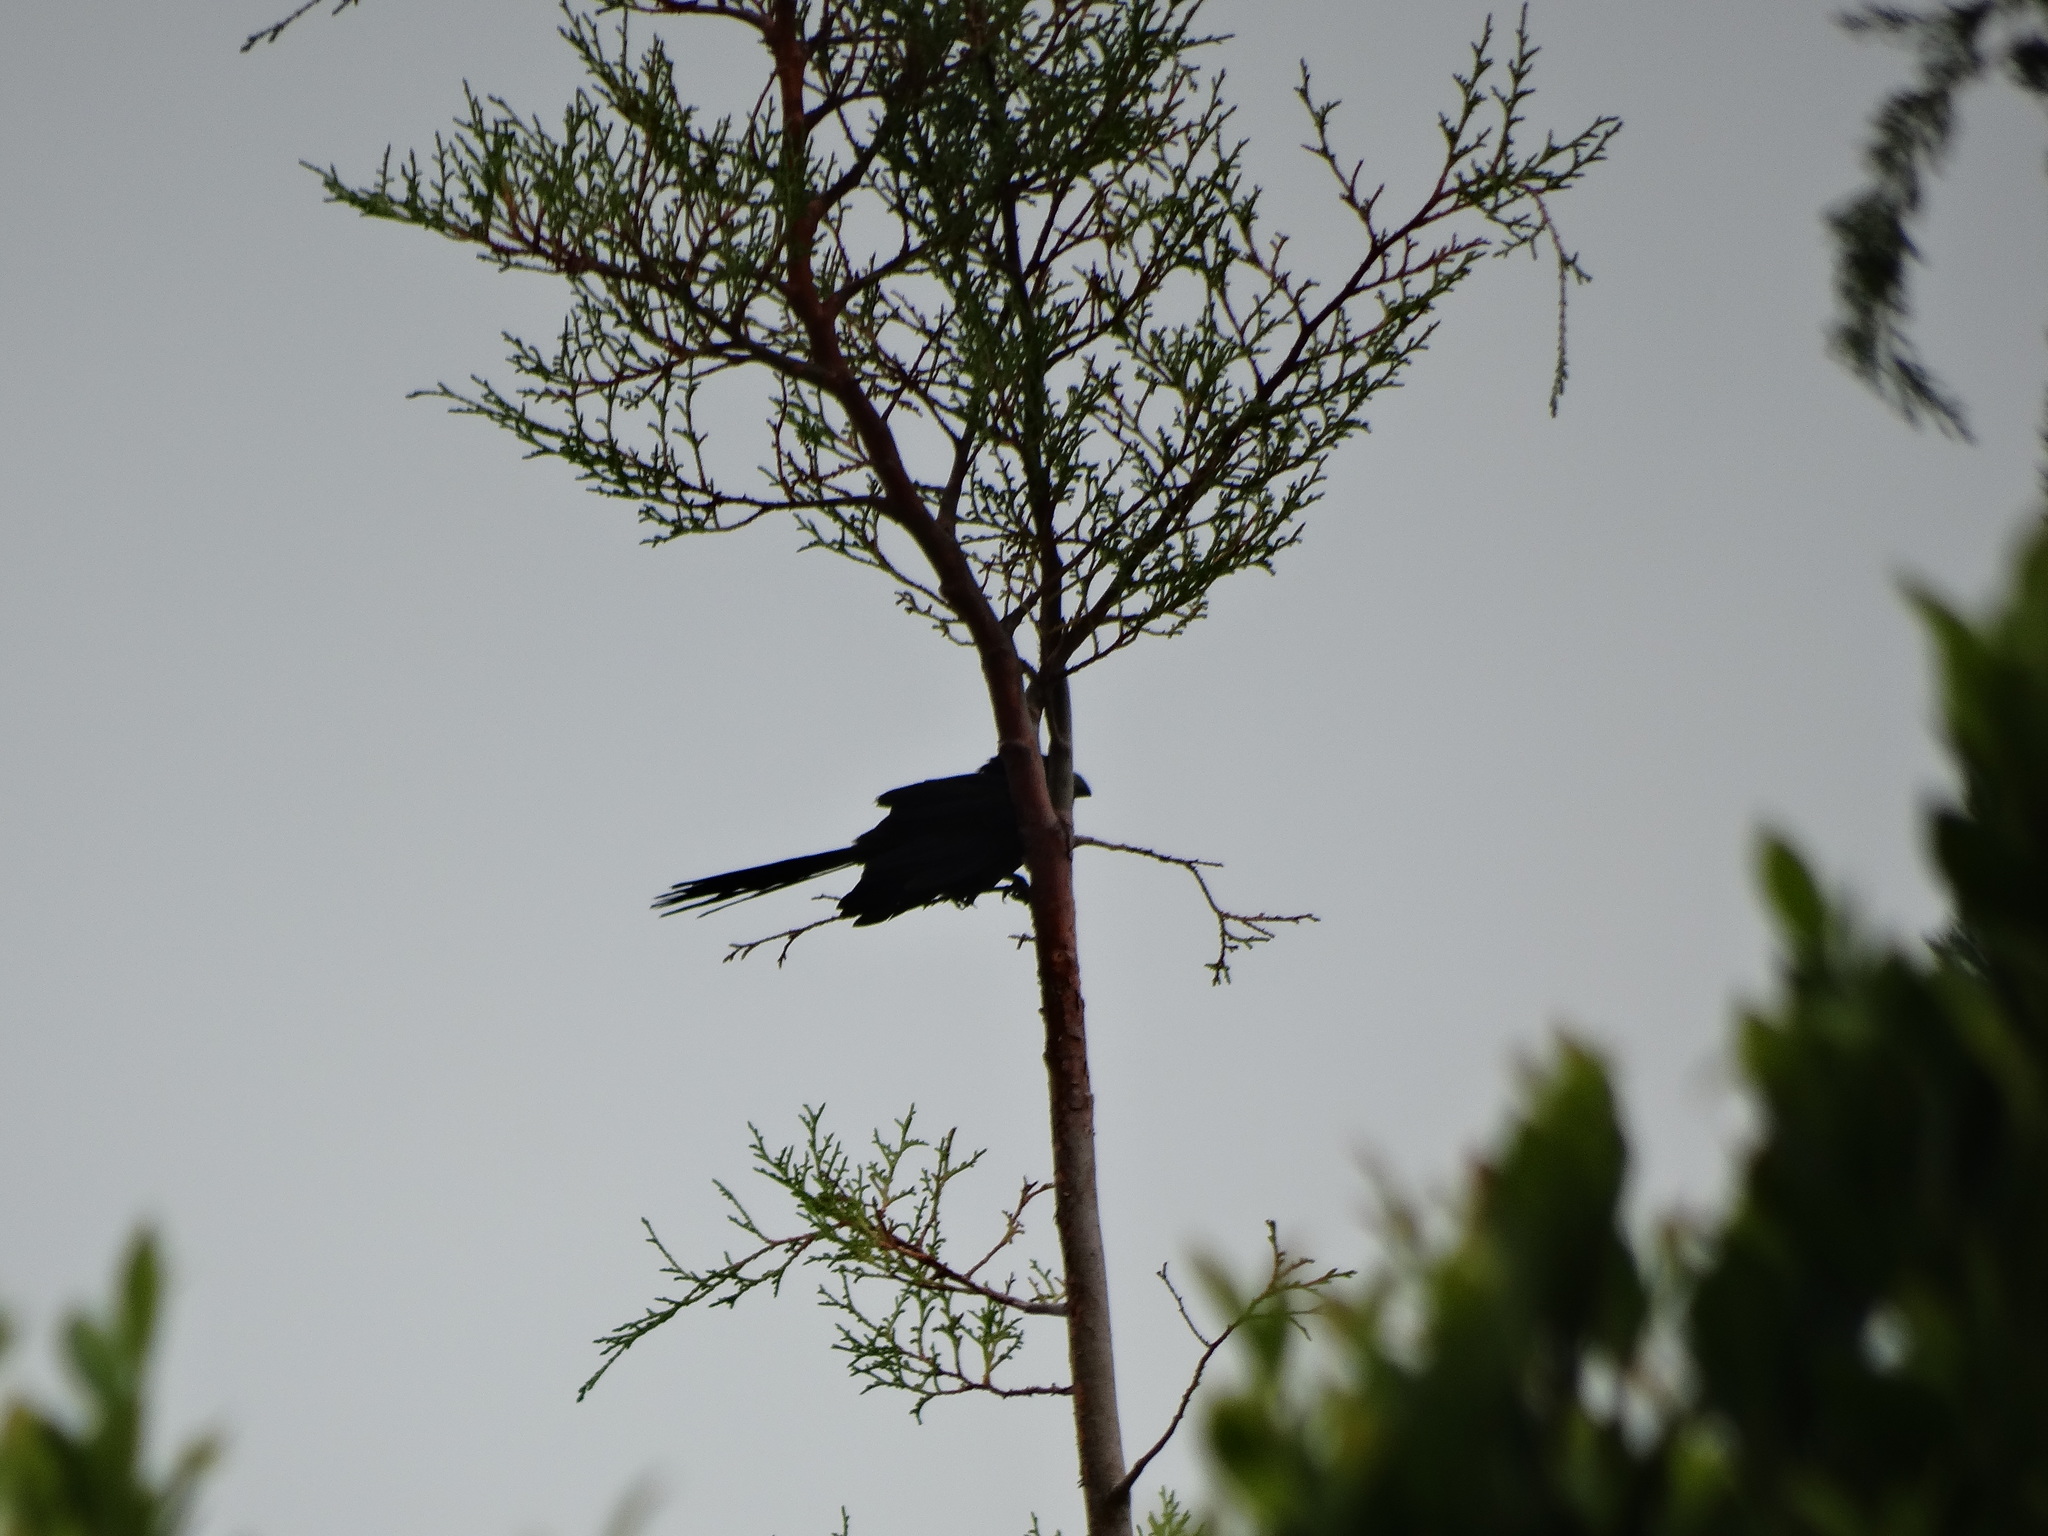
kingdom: Animalia
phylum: Chordata
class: Aves
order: Cuculiformes
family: Cuculidae
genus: Crotophaga
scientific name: Crotophaga sulcirostris
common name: Groove-billed ani
